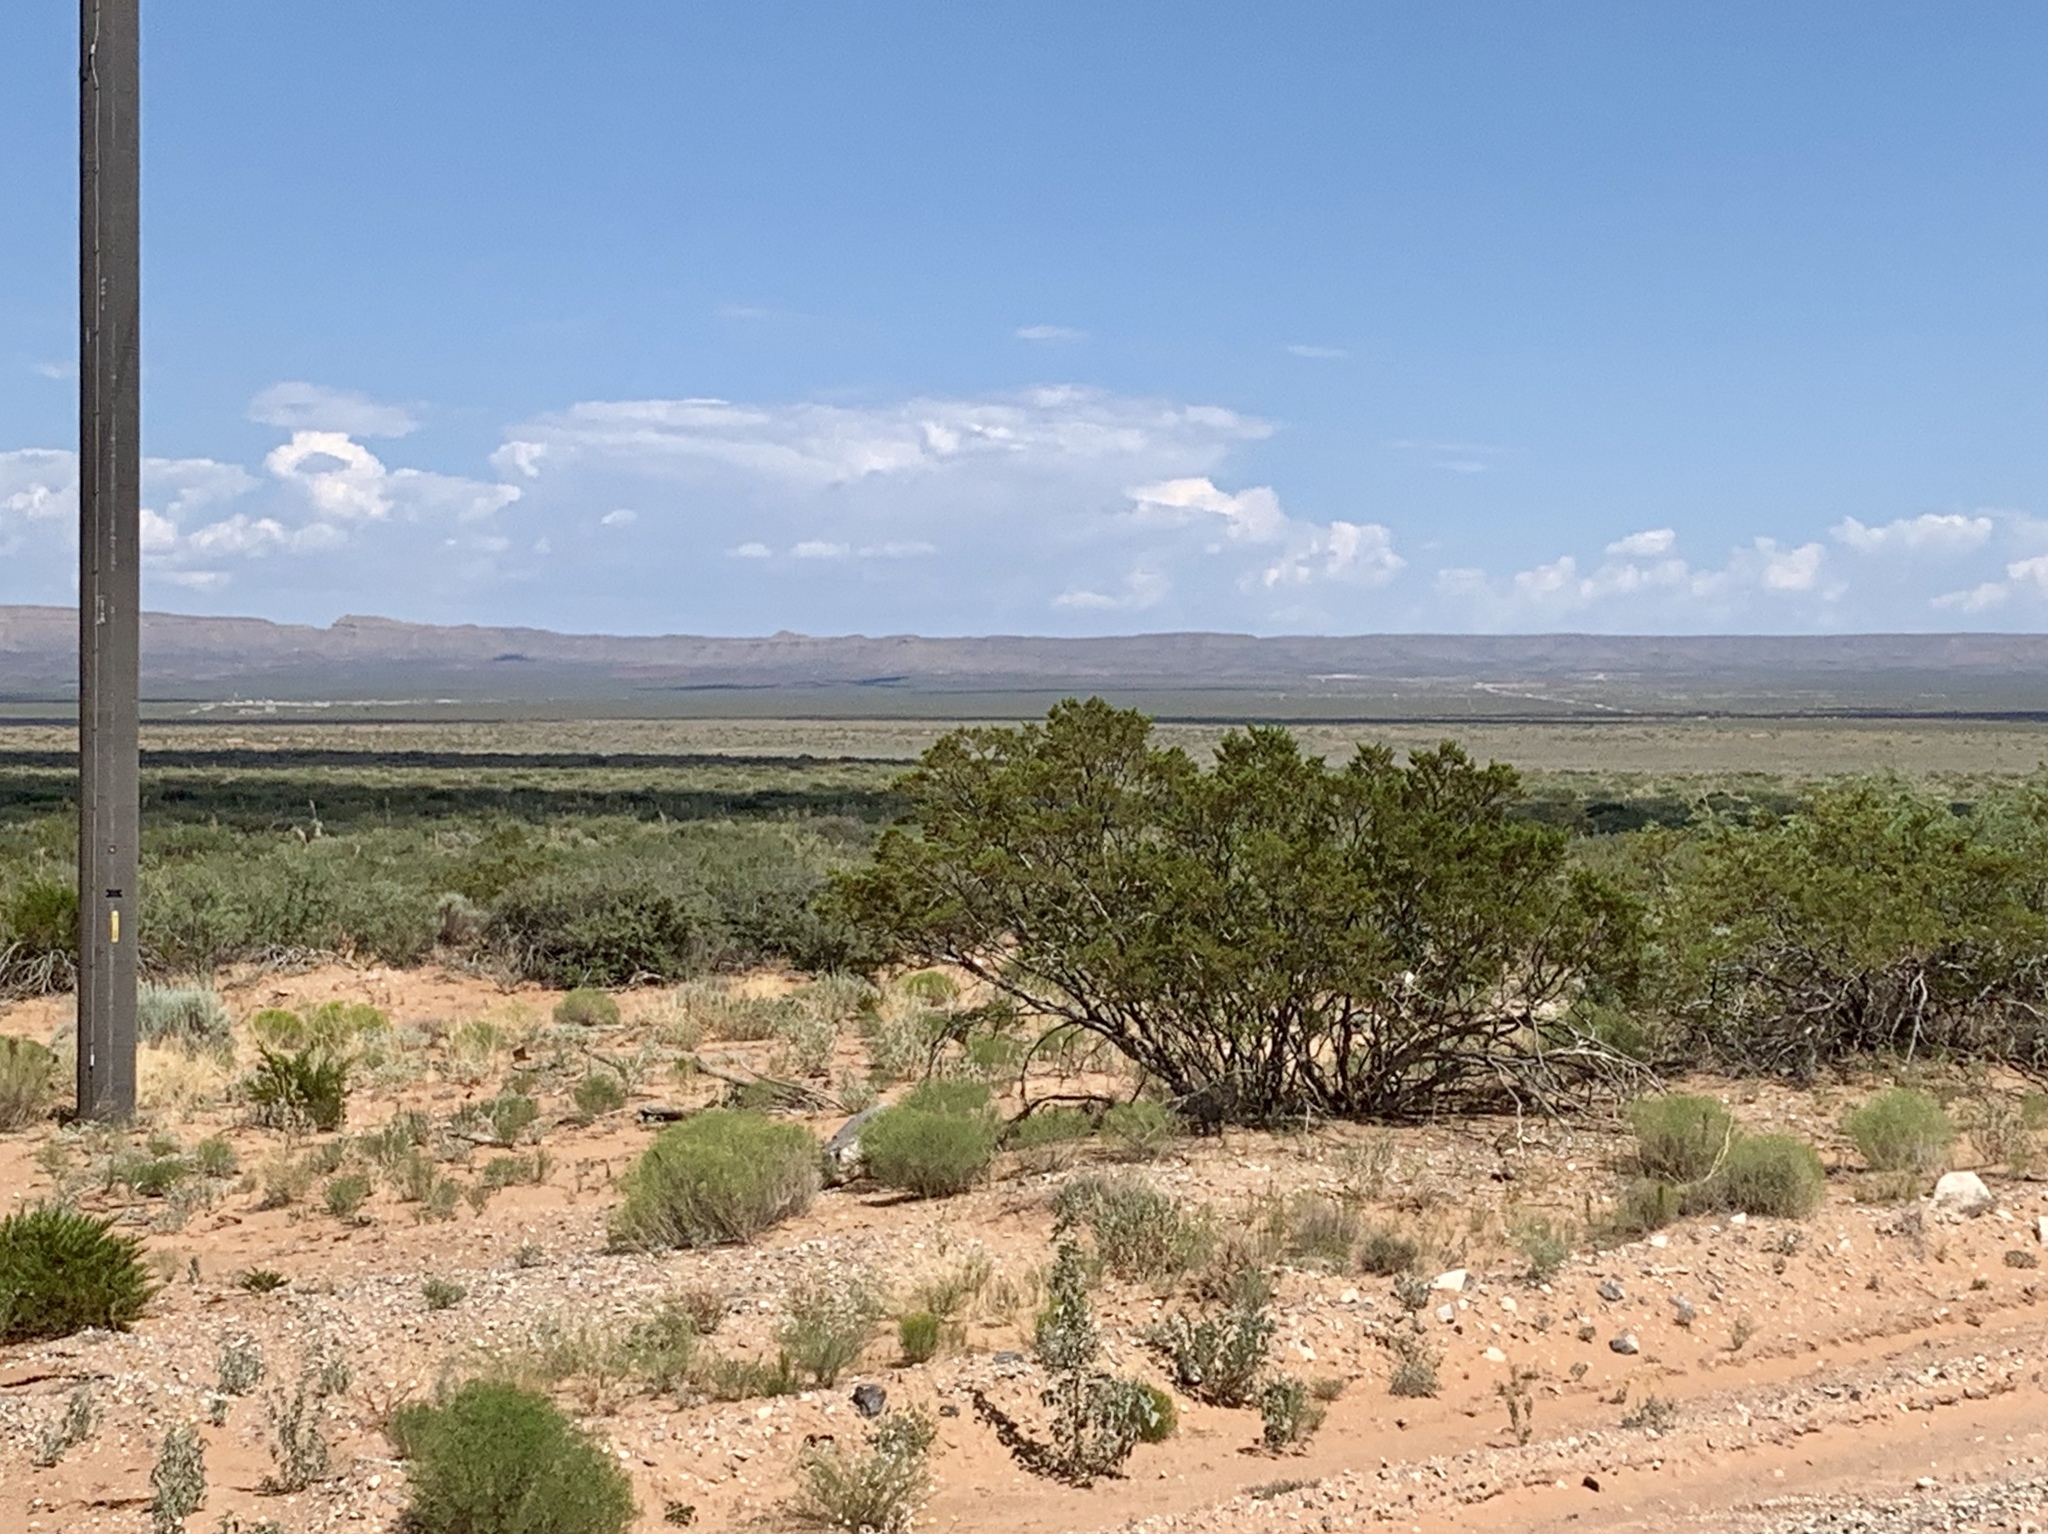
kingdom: Plantae
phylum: Tracheophyta
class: Magnoliopsida
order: Zygophyllales
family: Zygophyllaceae
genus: Larrea
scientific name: Larrea tridentata
